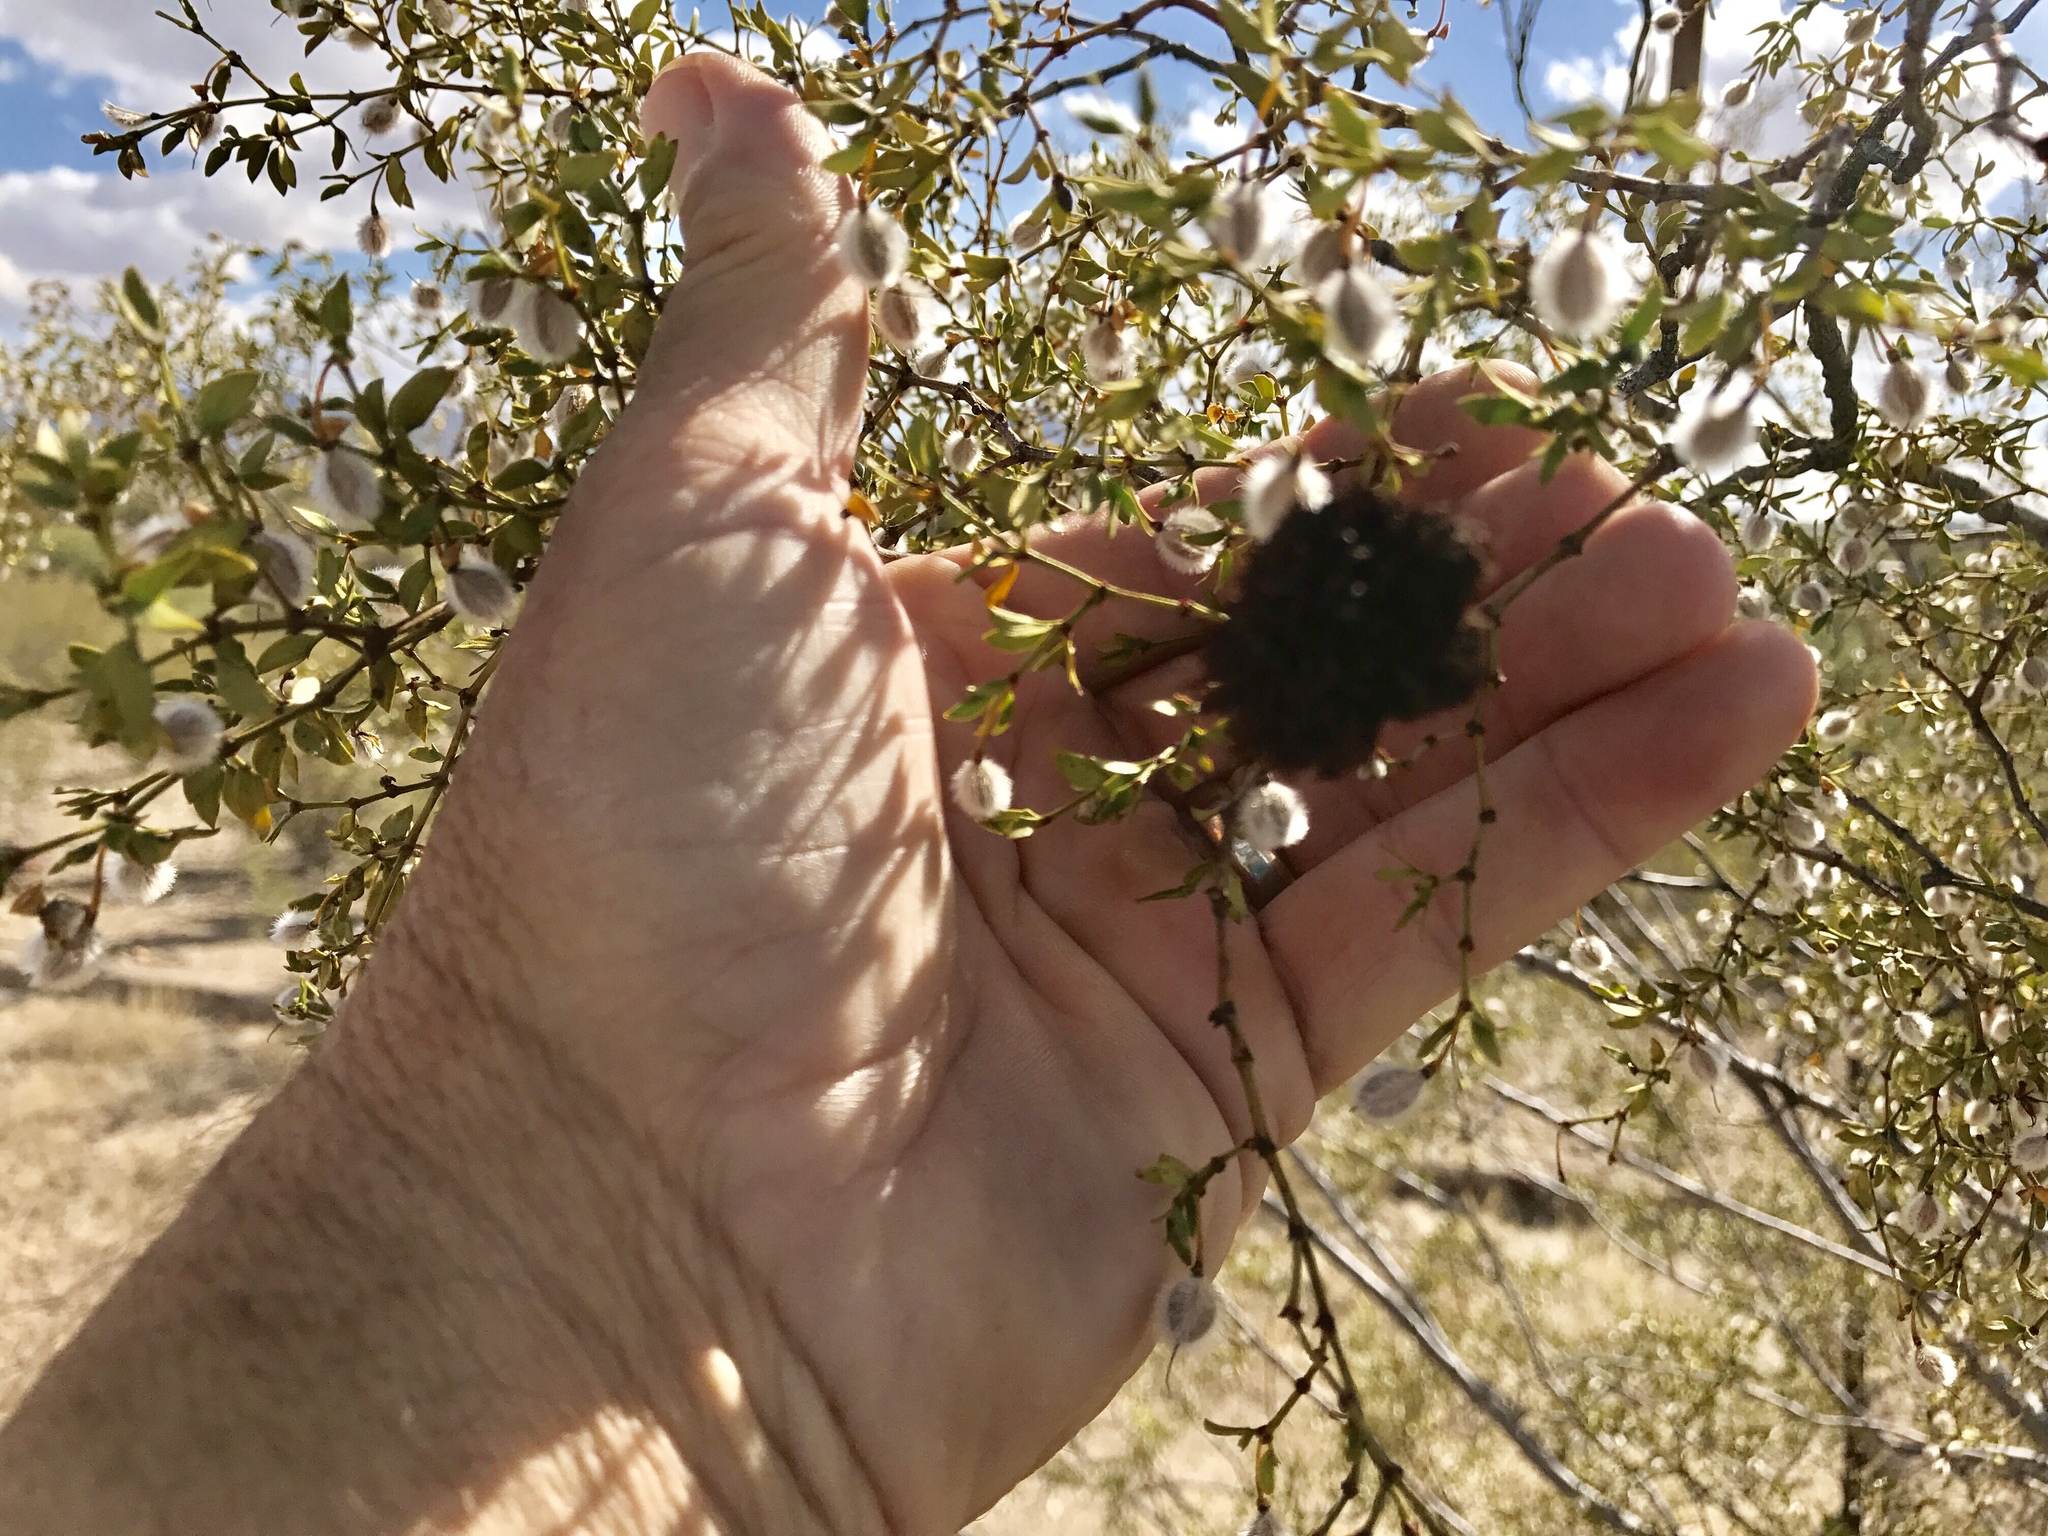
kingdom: Animalia
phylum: Arthropoda
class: Insecta
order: Diptera
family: Cecidomyiidae
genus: Asphondylia
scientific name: Asphondylia auripila
